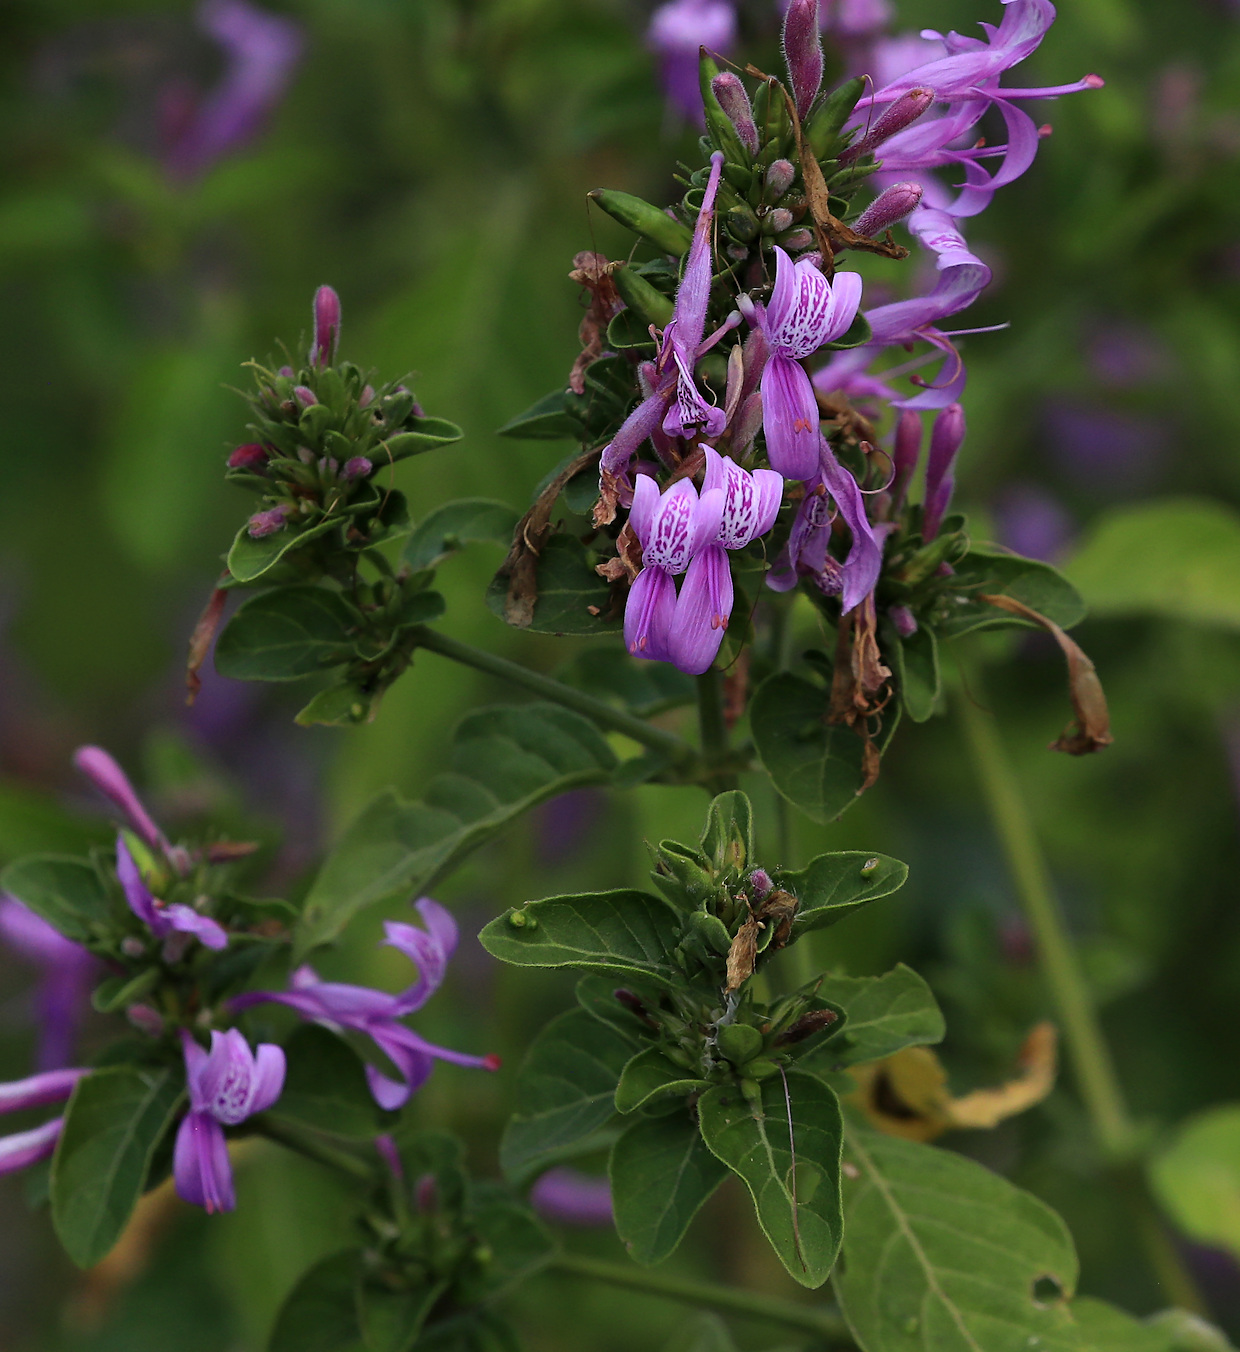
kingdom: Plantae
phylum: Tracheophyta
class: Magnoliopsida
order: Lamiales
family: Acanthaceae
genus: Hypoestes
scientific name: Hypoestes aristata
